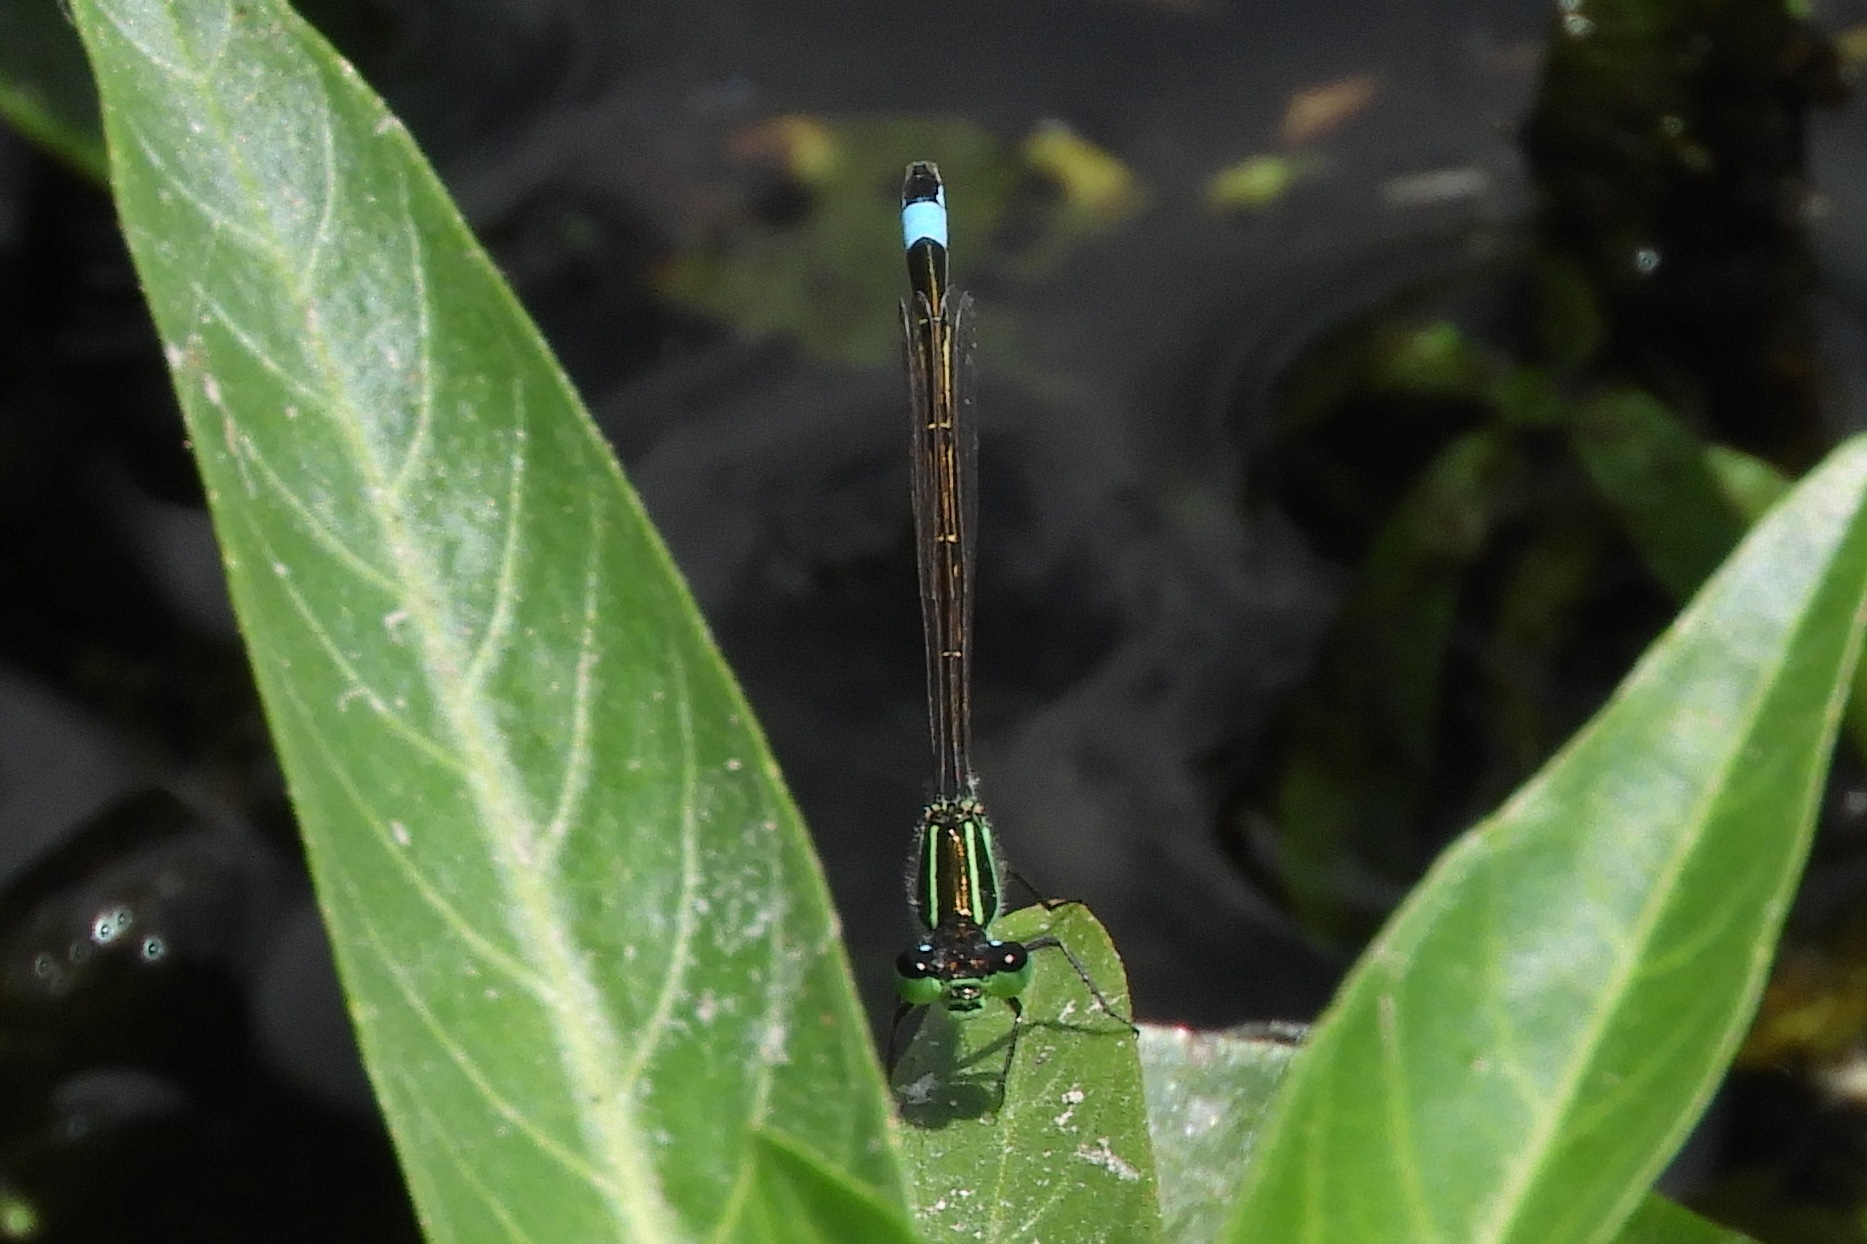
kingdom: Animalia
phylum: Arthropoda
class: Insecta
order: Odonata
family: Coenagrionidae
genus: Ischnura
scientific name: Ischnura ramburii
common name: Rambur's forktail
